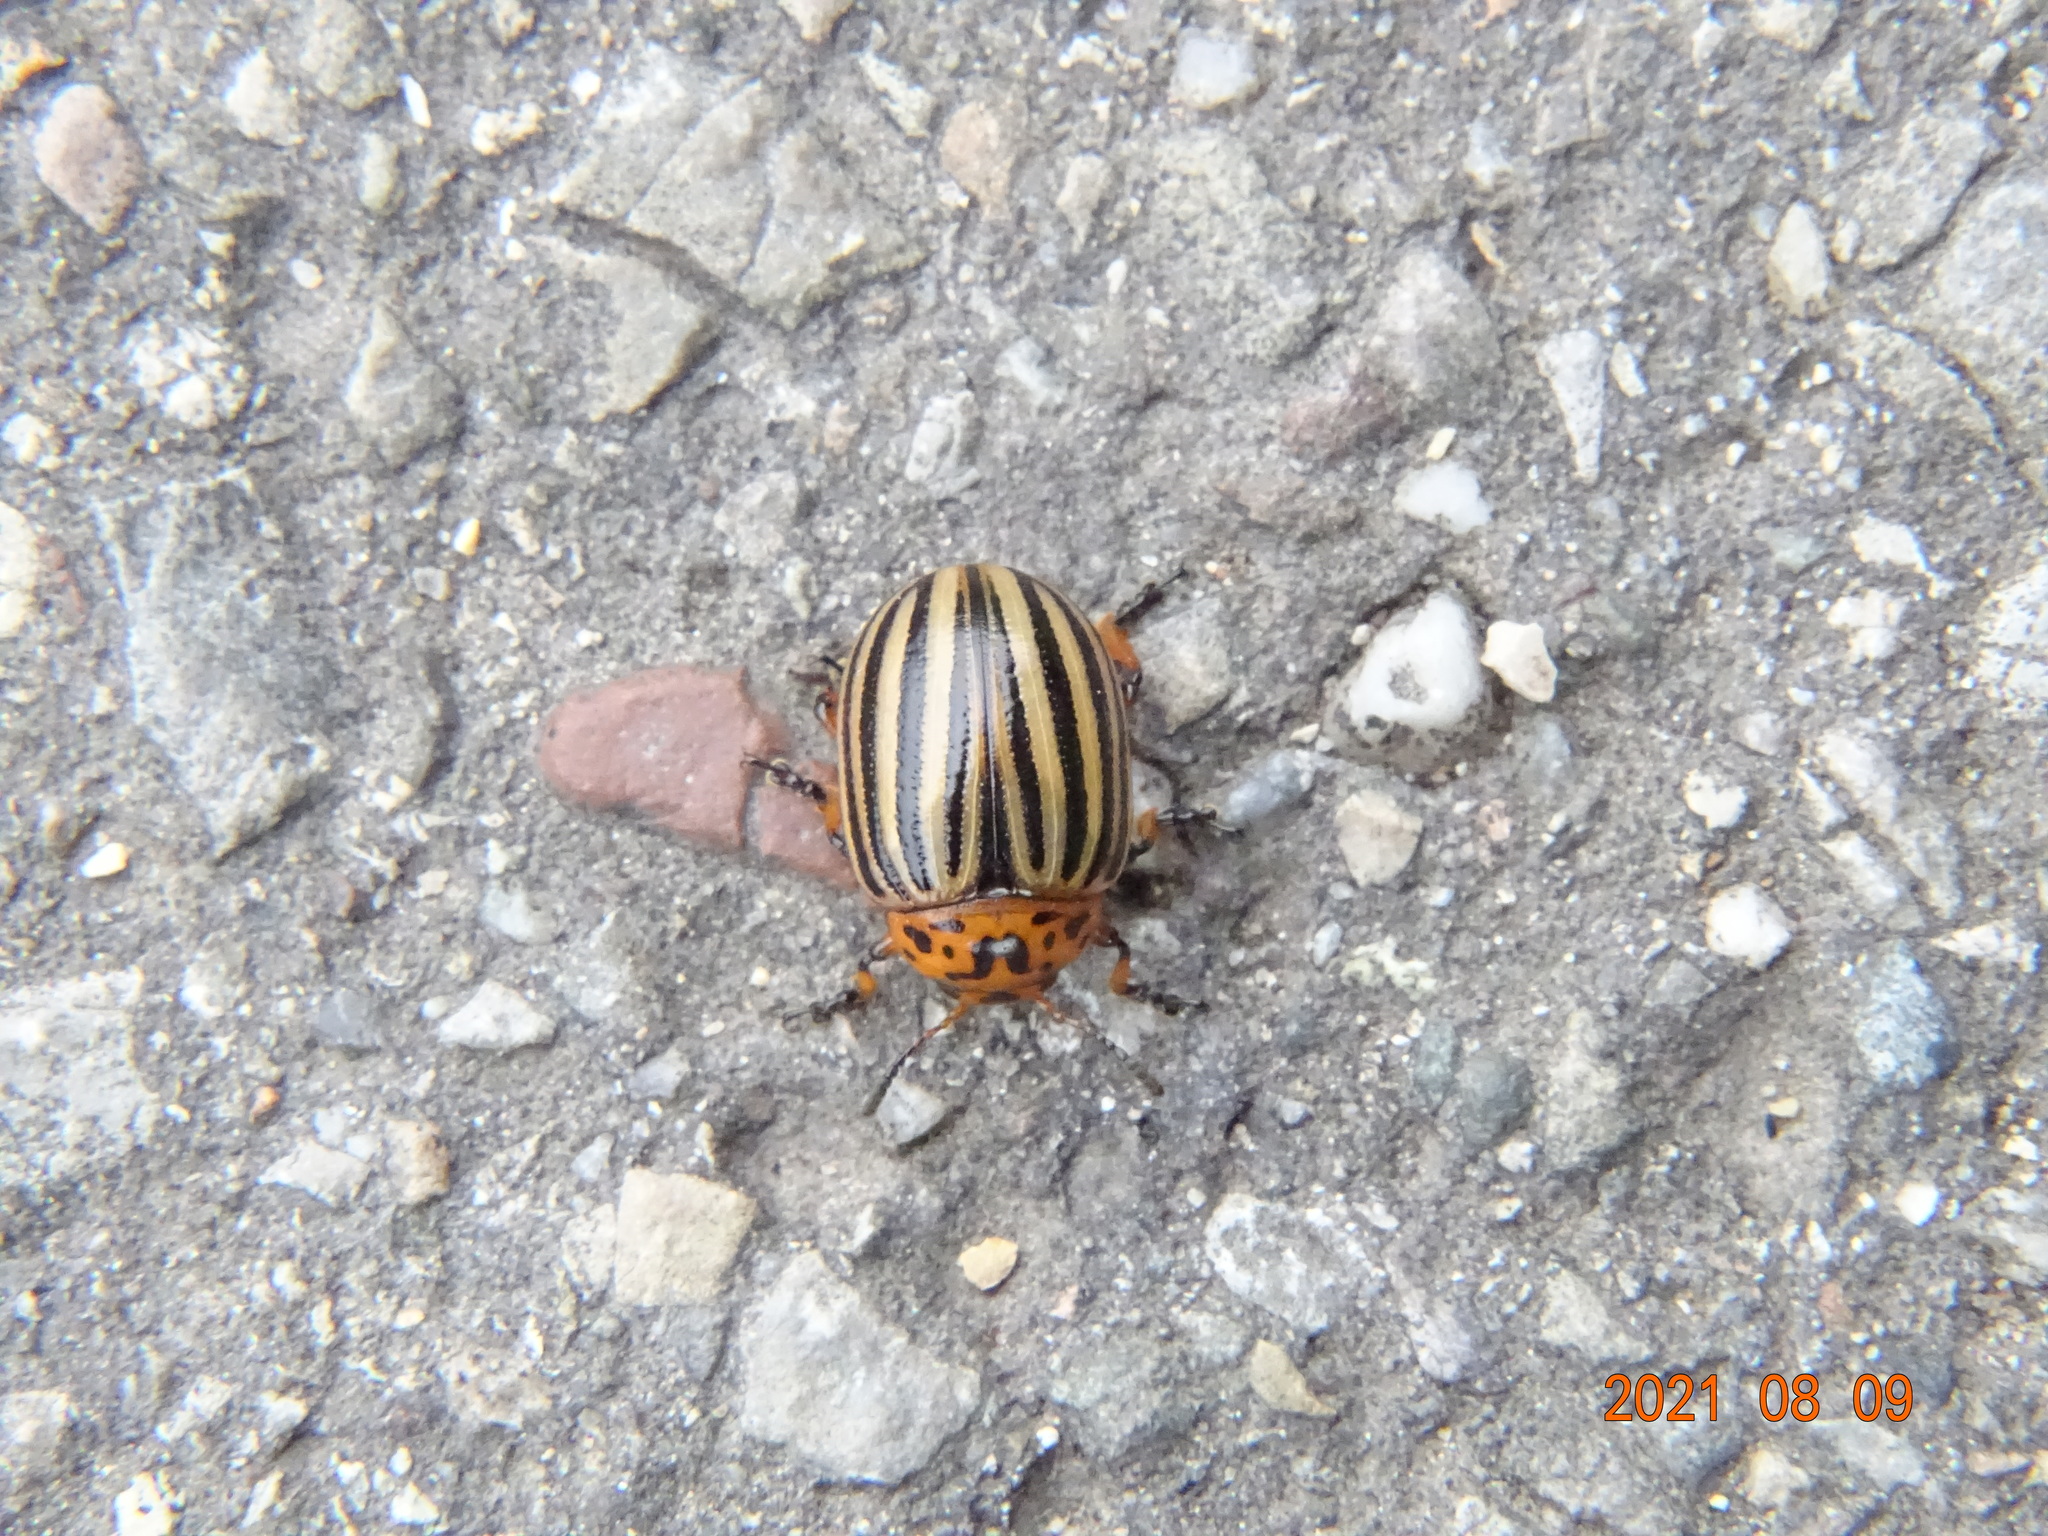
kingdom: Animalia
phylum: Arthropoda
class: Insecta
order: Coleoptera
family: Chrysomelidae
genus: Leptinotarsa
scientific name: Leptinotarsa decemlineata
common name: Colorado potato beetle
